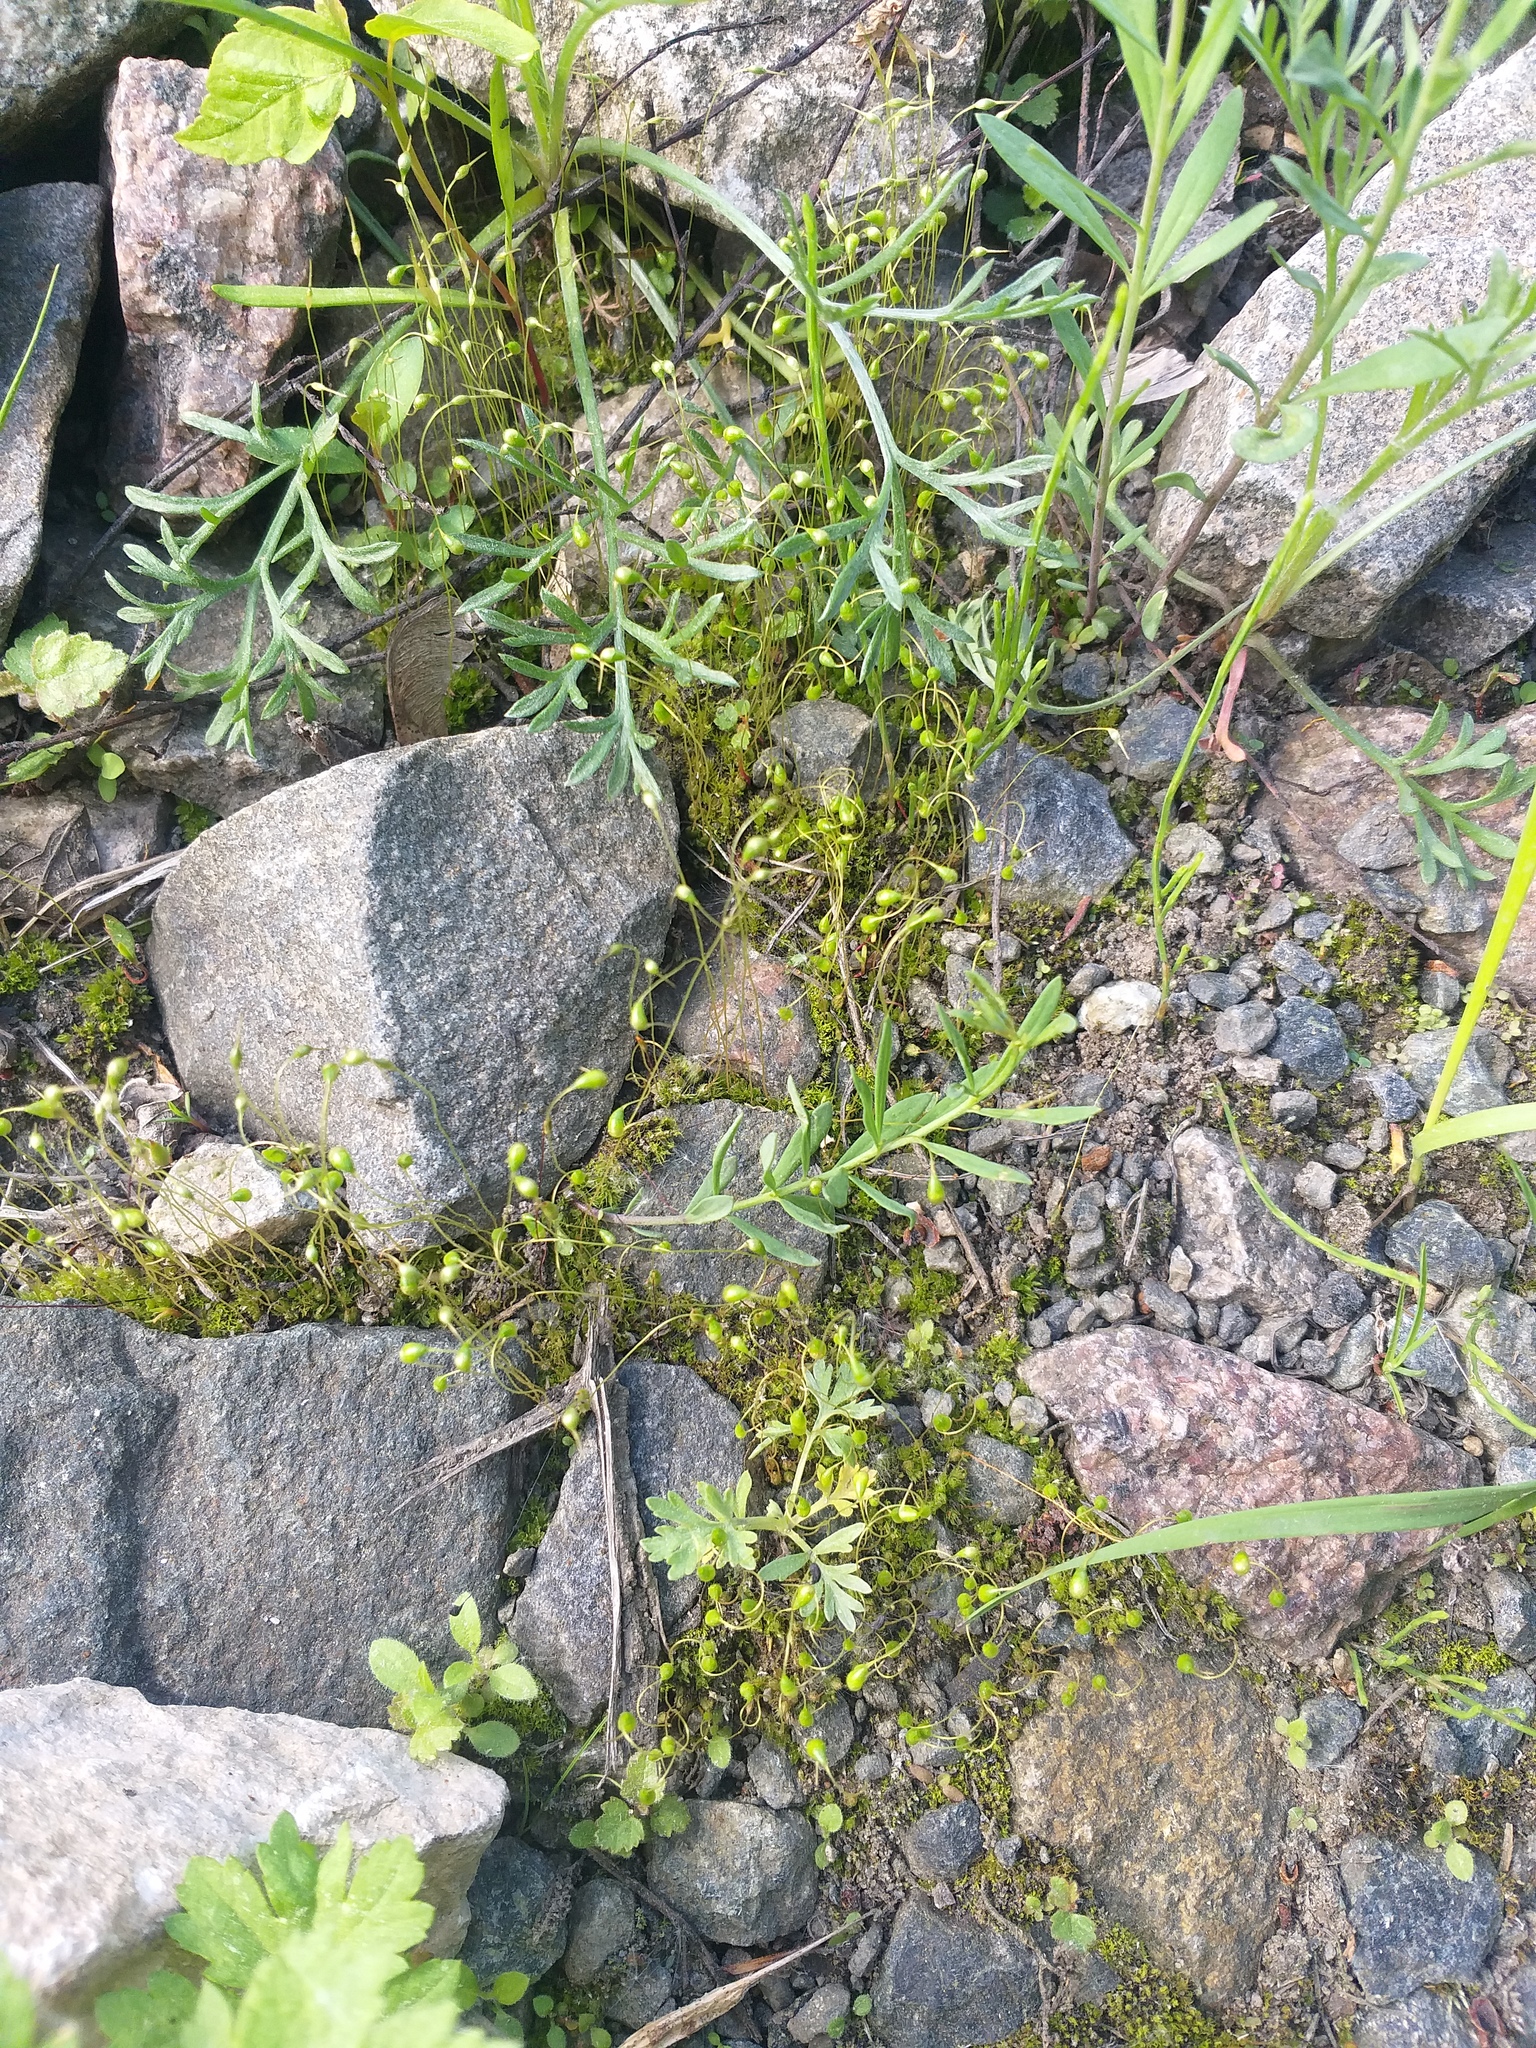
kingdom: Plantae
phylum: Bryophyta
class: Bryopsida
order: Funariales
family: Funariaceae
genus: Funaria
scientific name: Funaria hygrometrica
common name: Common cord moss
